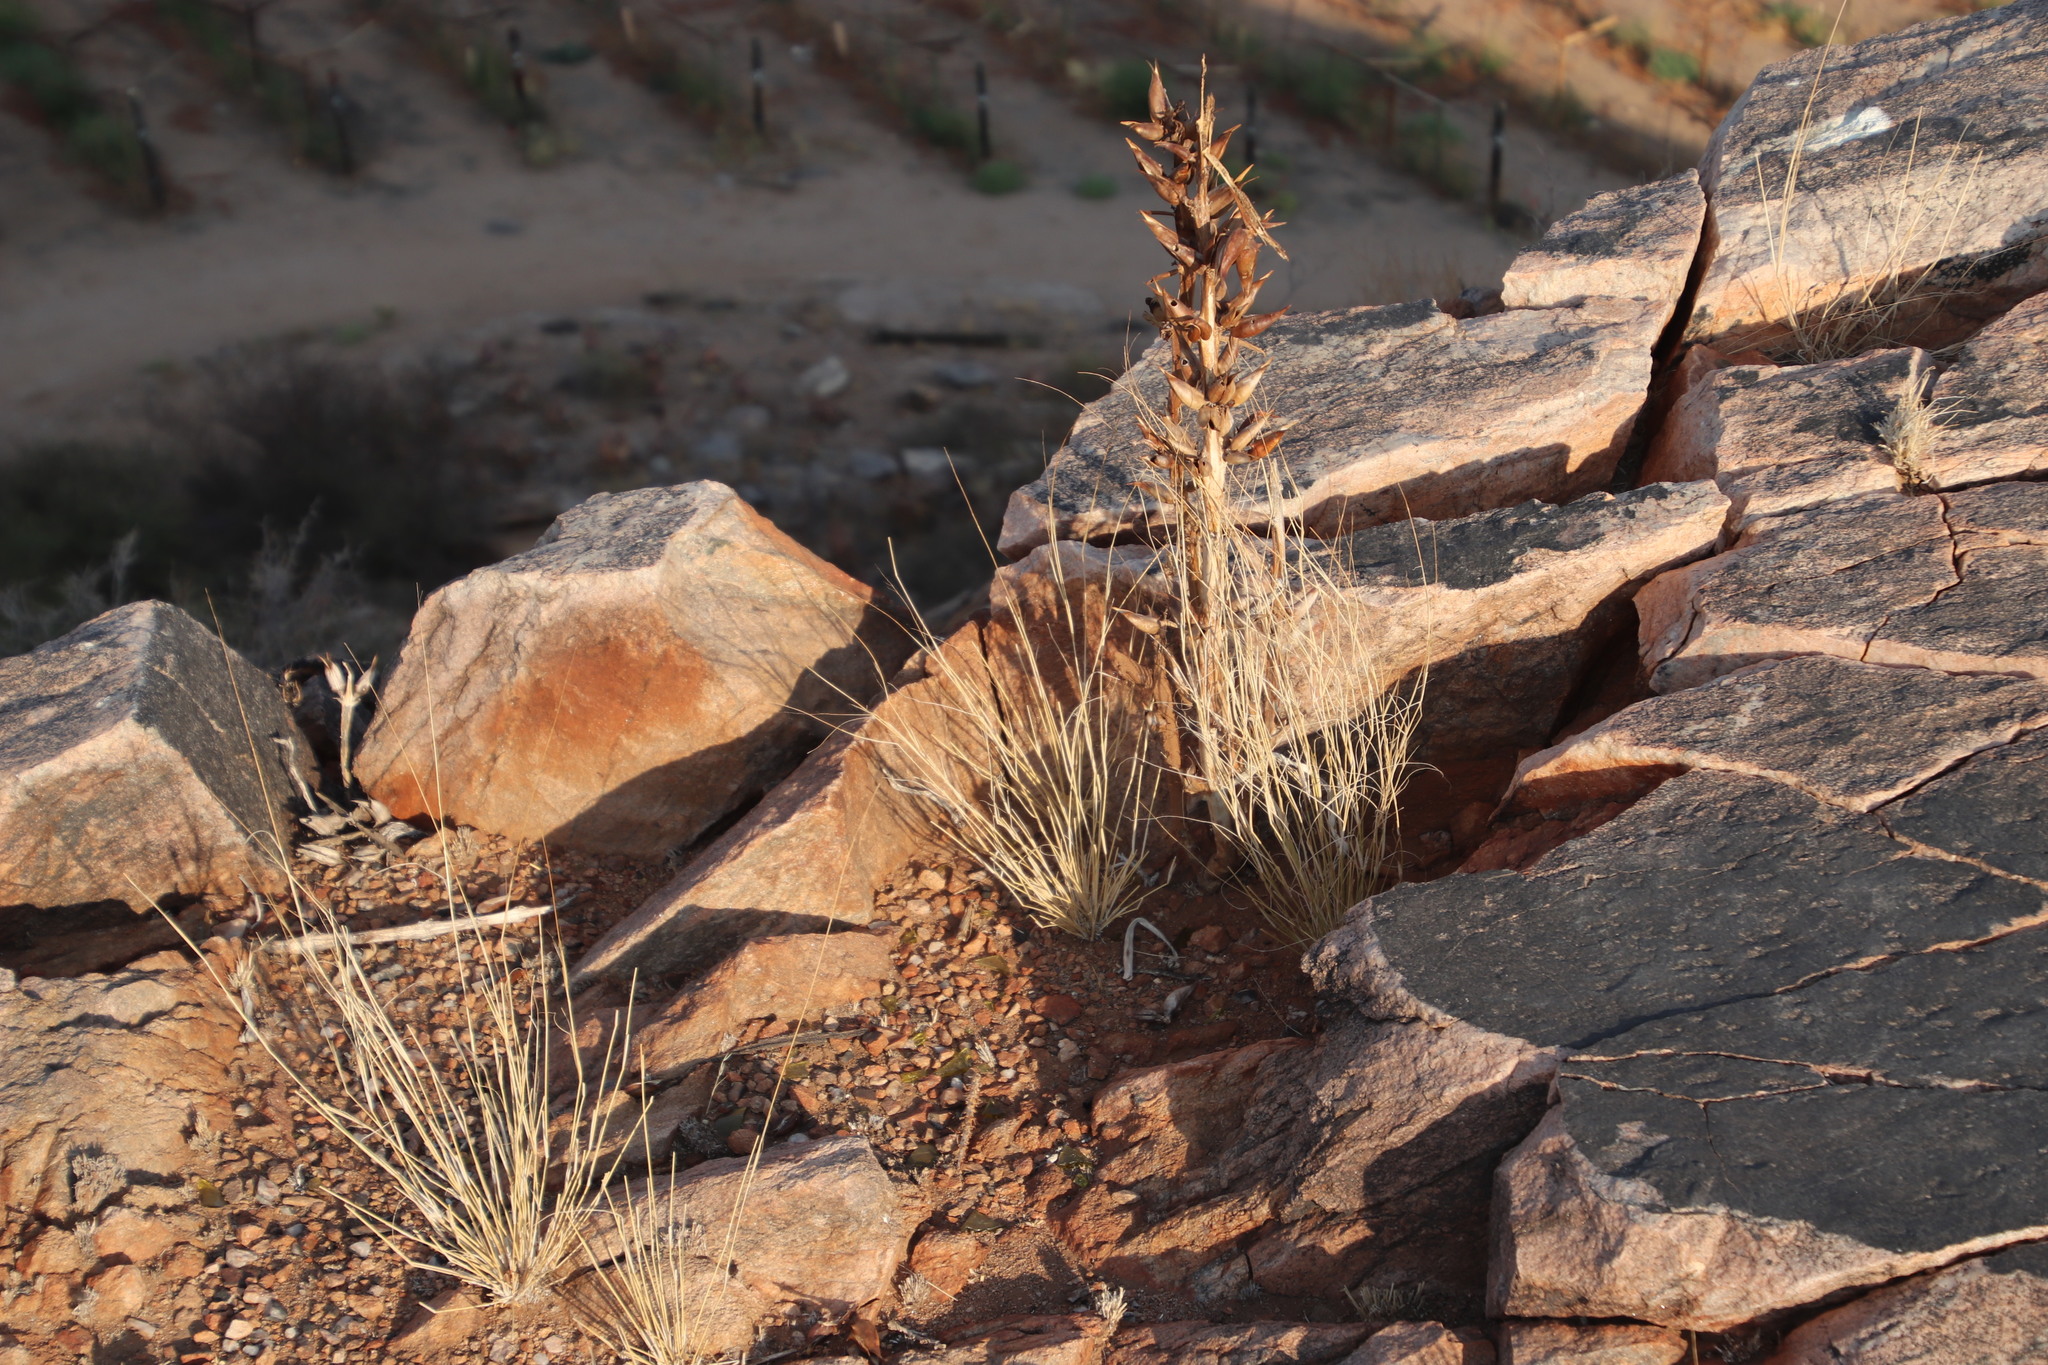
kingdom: Plantae
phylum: Tracheophyta
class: Magnoliopsida
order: Lamiales
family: Pedaliaceae
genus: Rogeria
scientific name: Rogeria longiflora
